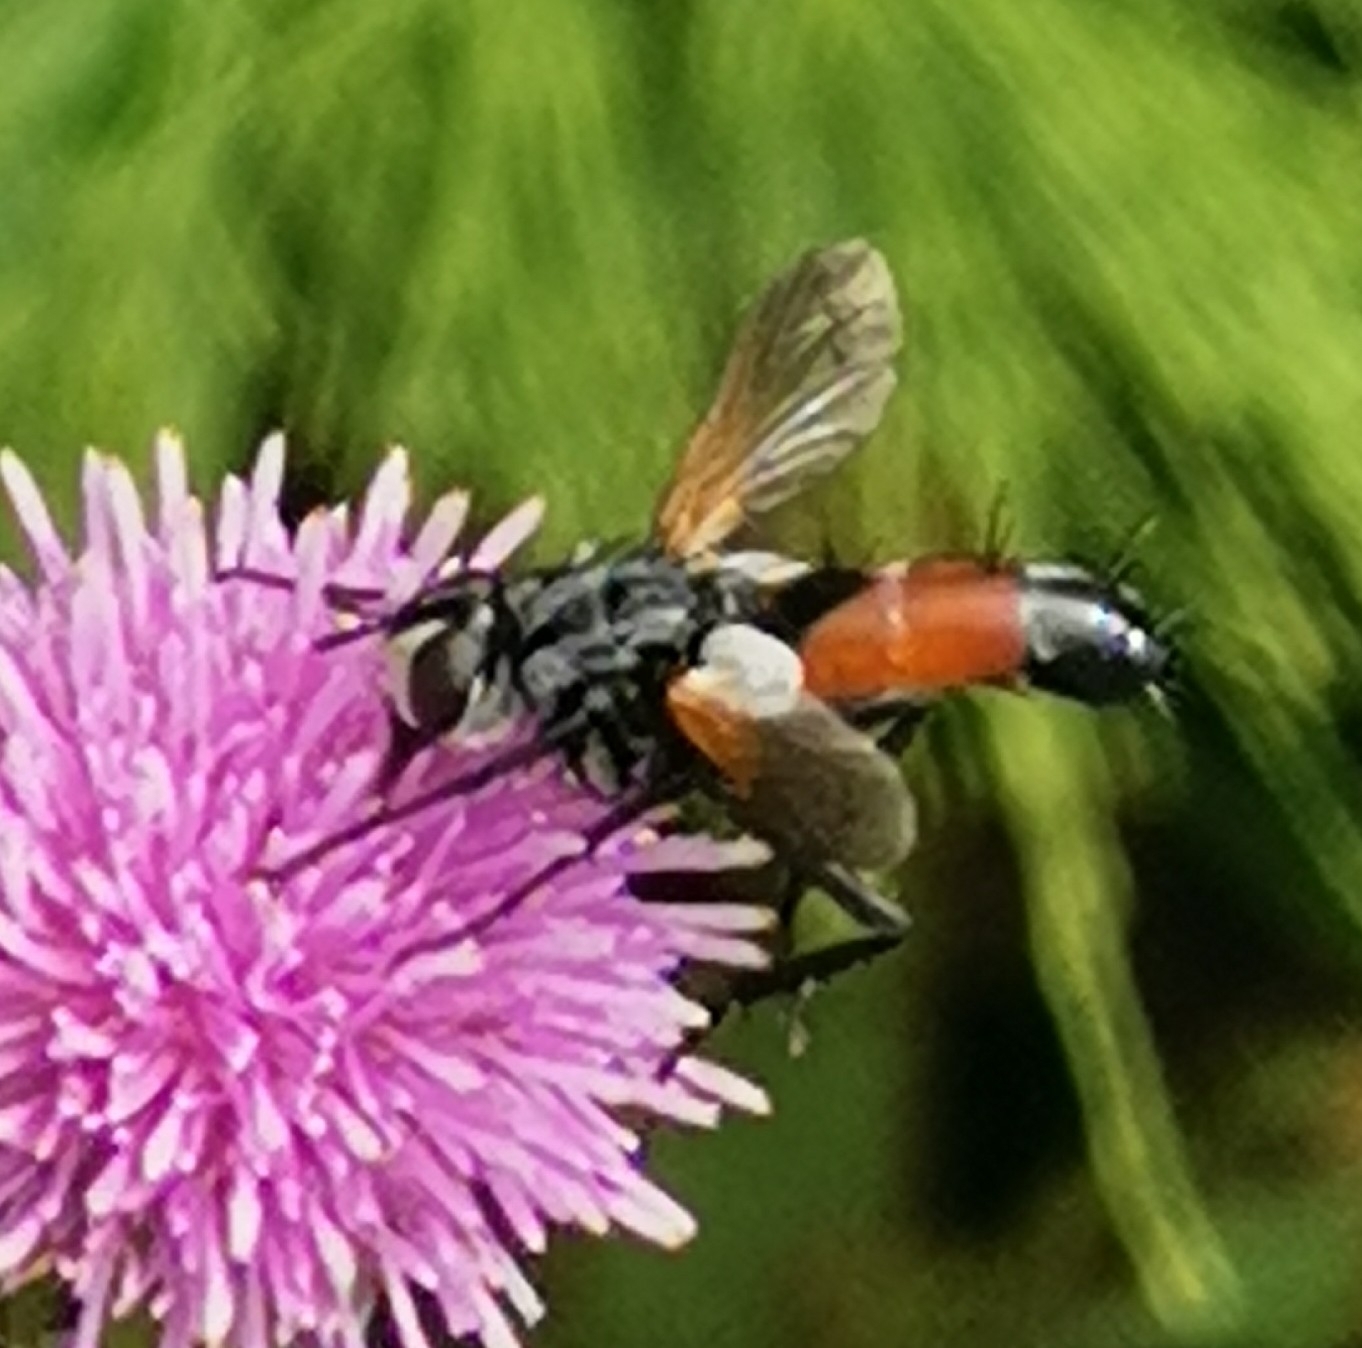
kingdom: Animalia
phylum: Arthropoda
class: Insecta
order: Diptera
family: Tachinidae
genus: Cylindromyia
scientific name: Cylindromyia brassicaria
